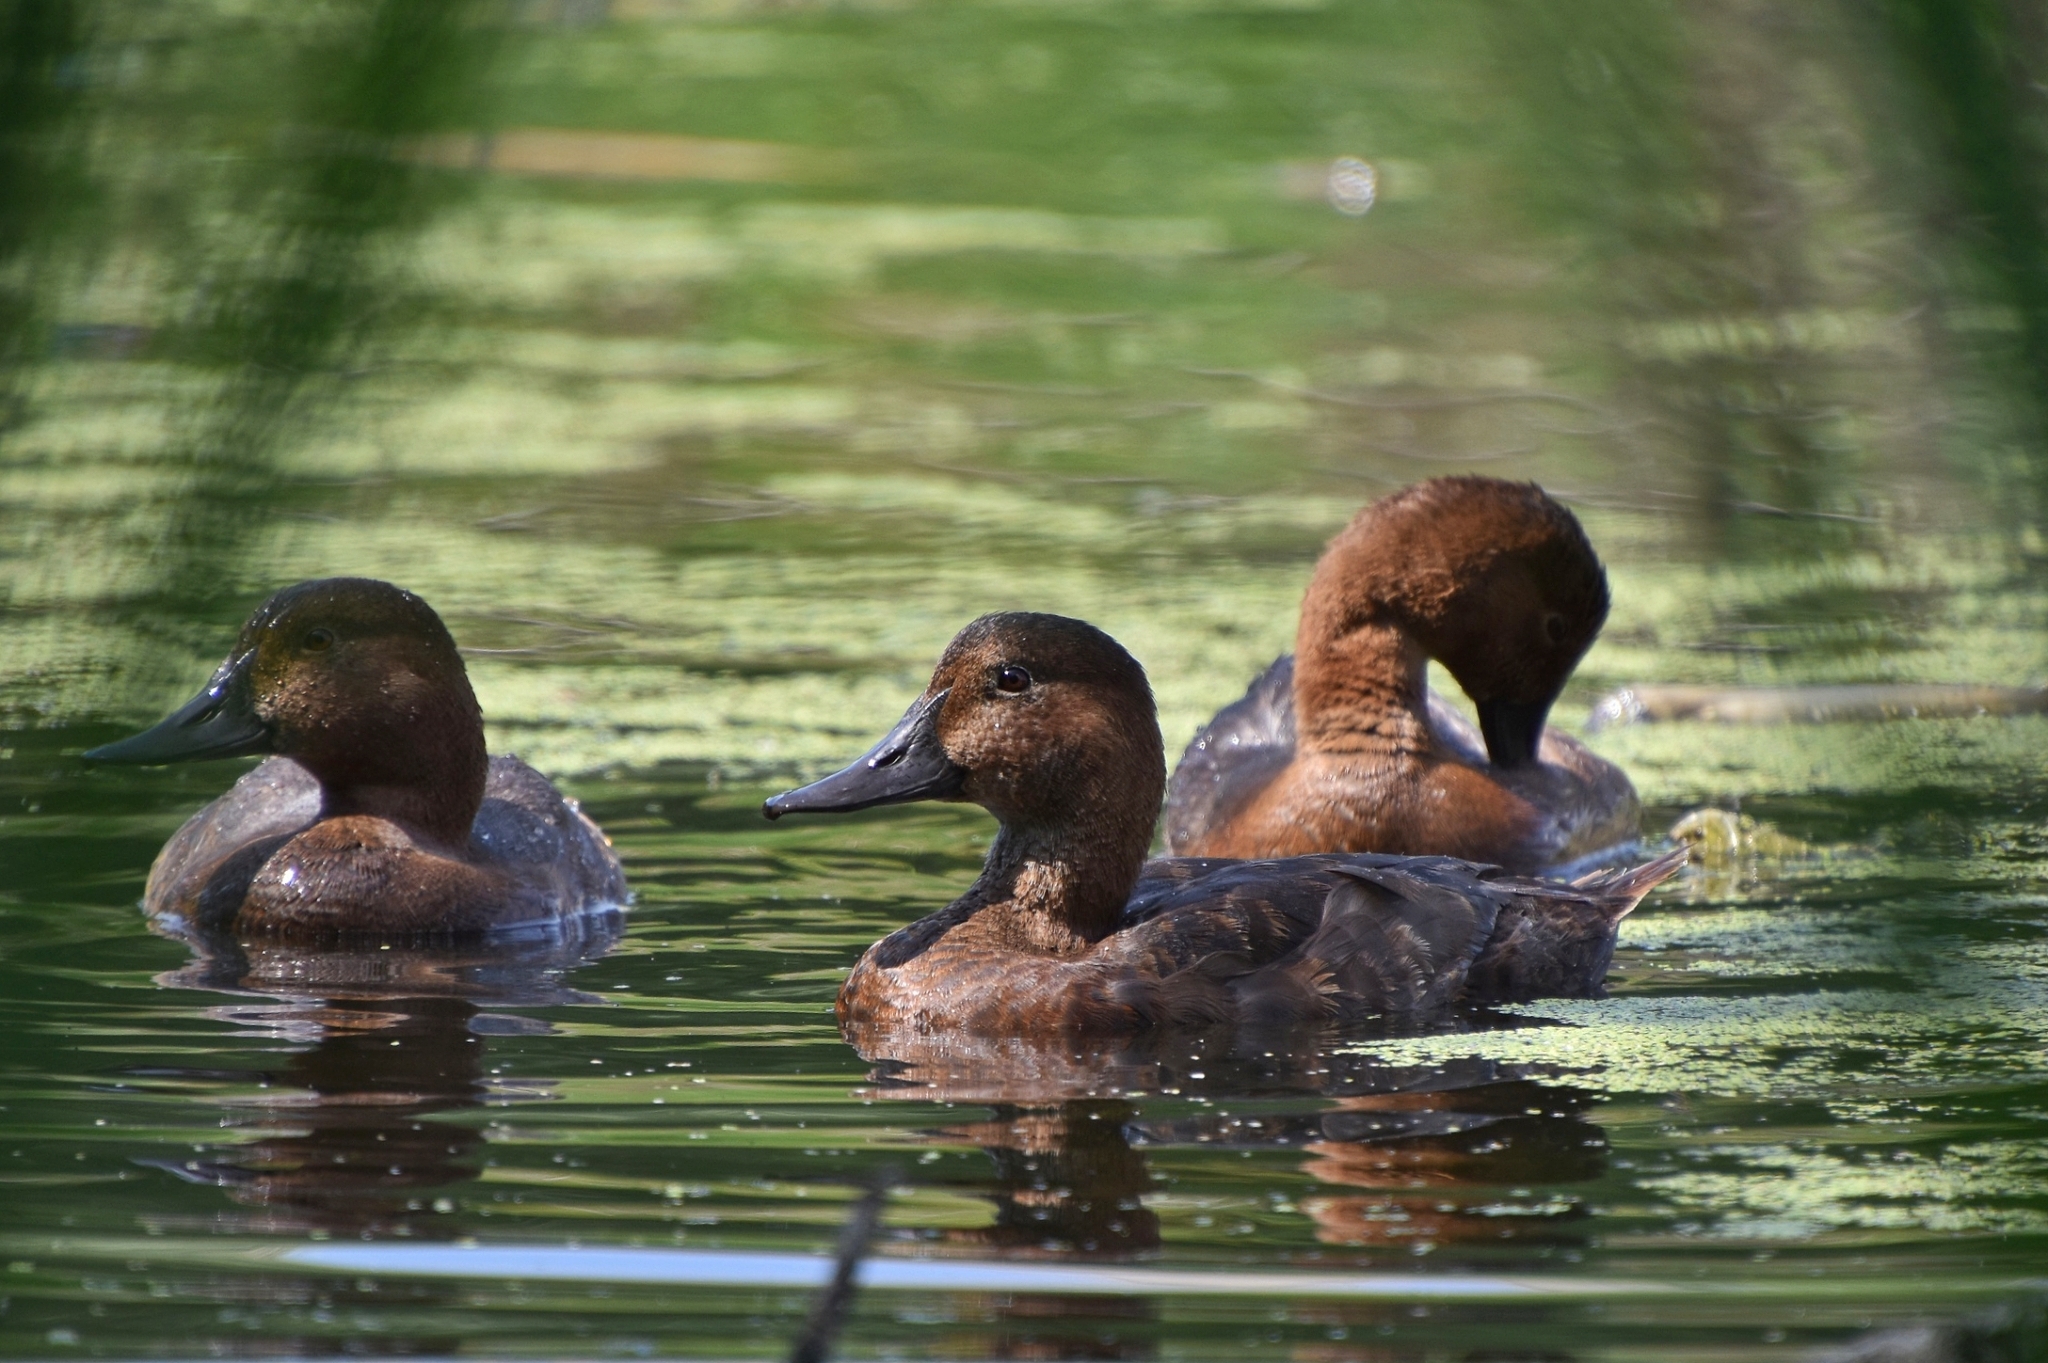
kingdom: Animalia
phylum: Chordata
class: Aves
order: Anseriformes
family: Anatidae
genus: Aythya
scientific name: Aythya ferina
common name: Common pochard
